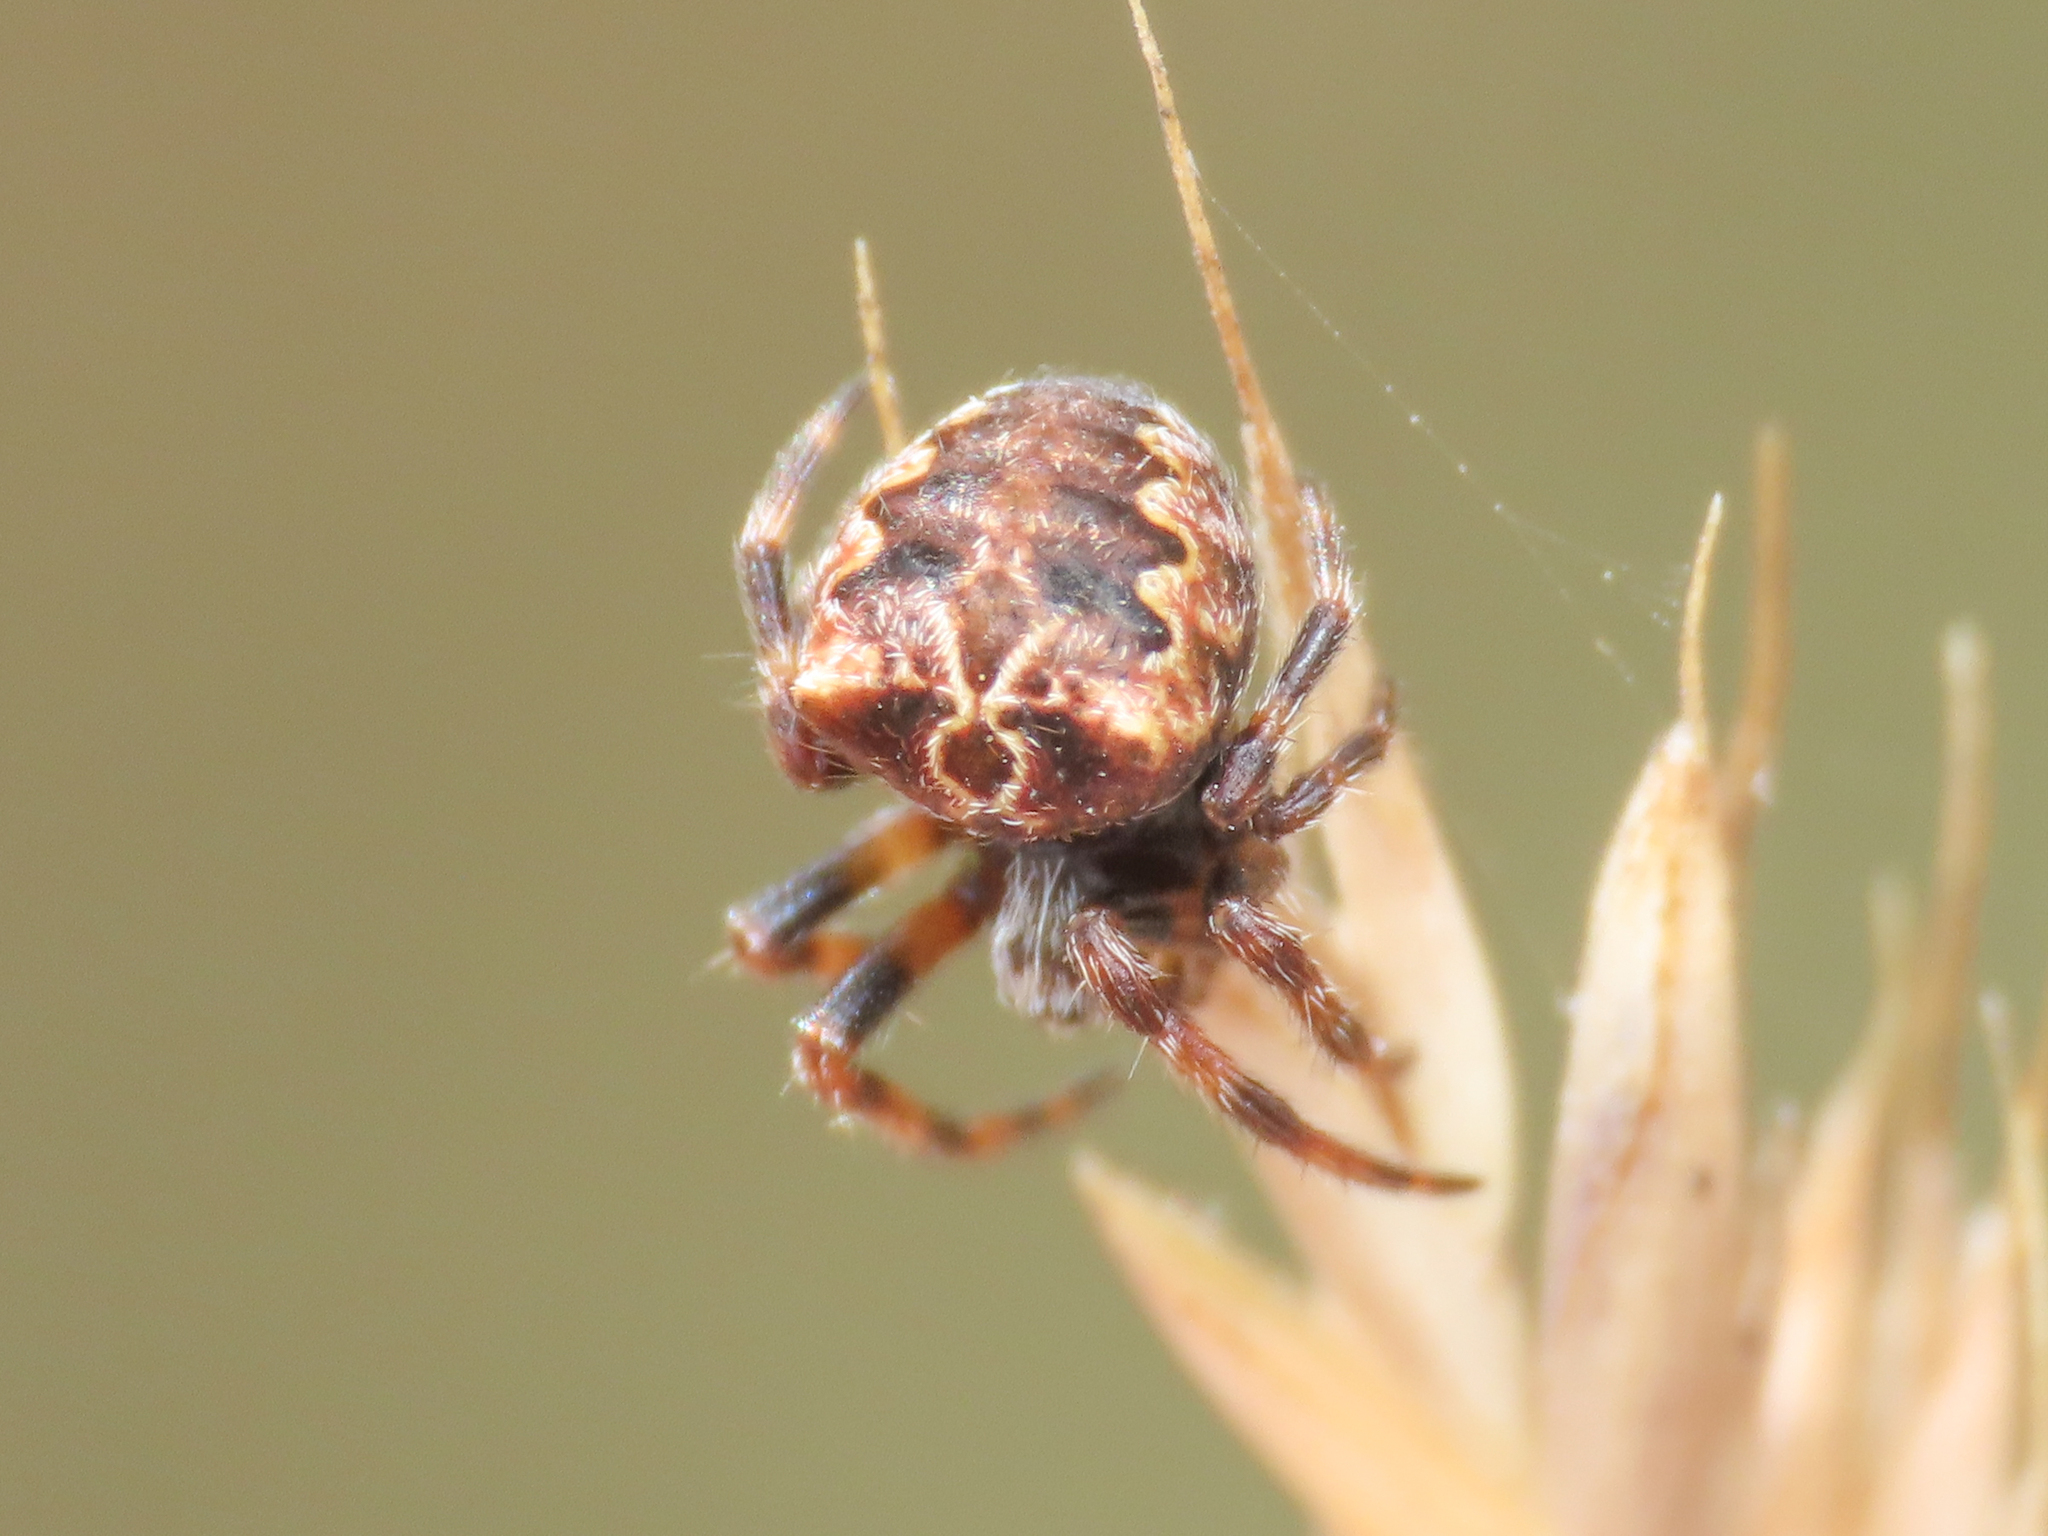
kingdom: Animalia
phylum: Arthropoda
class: Arachnida
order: Araneae
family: Araneidae
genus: Araneus
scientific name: Araneus grossus
